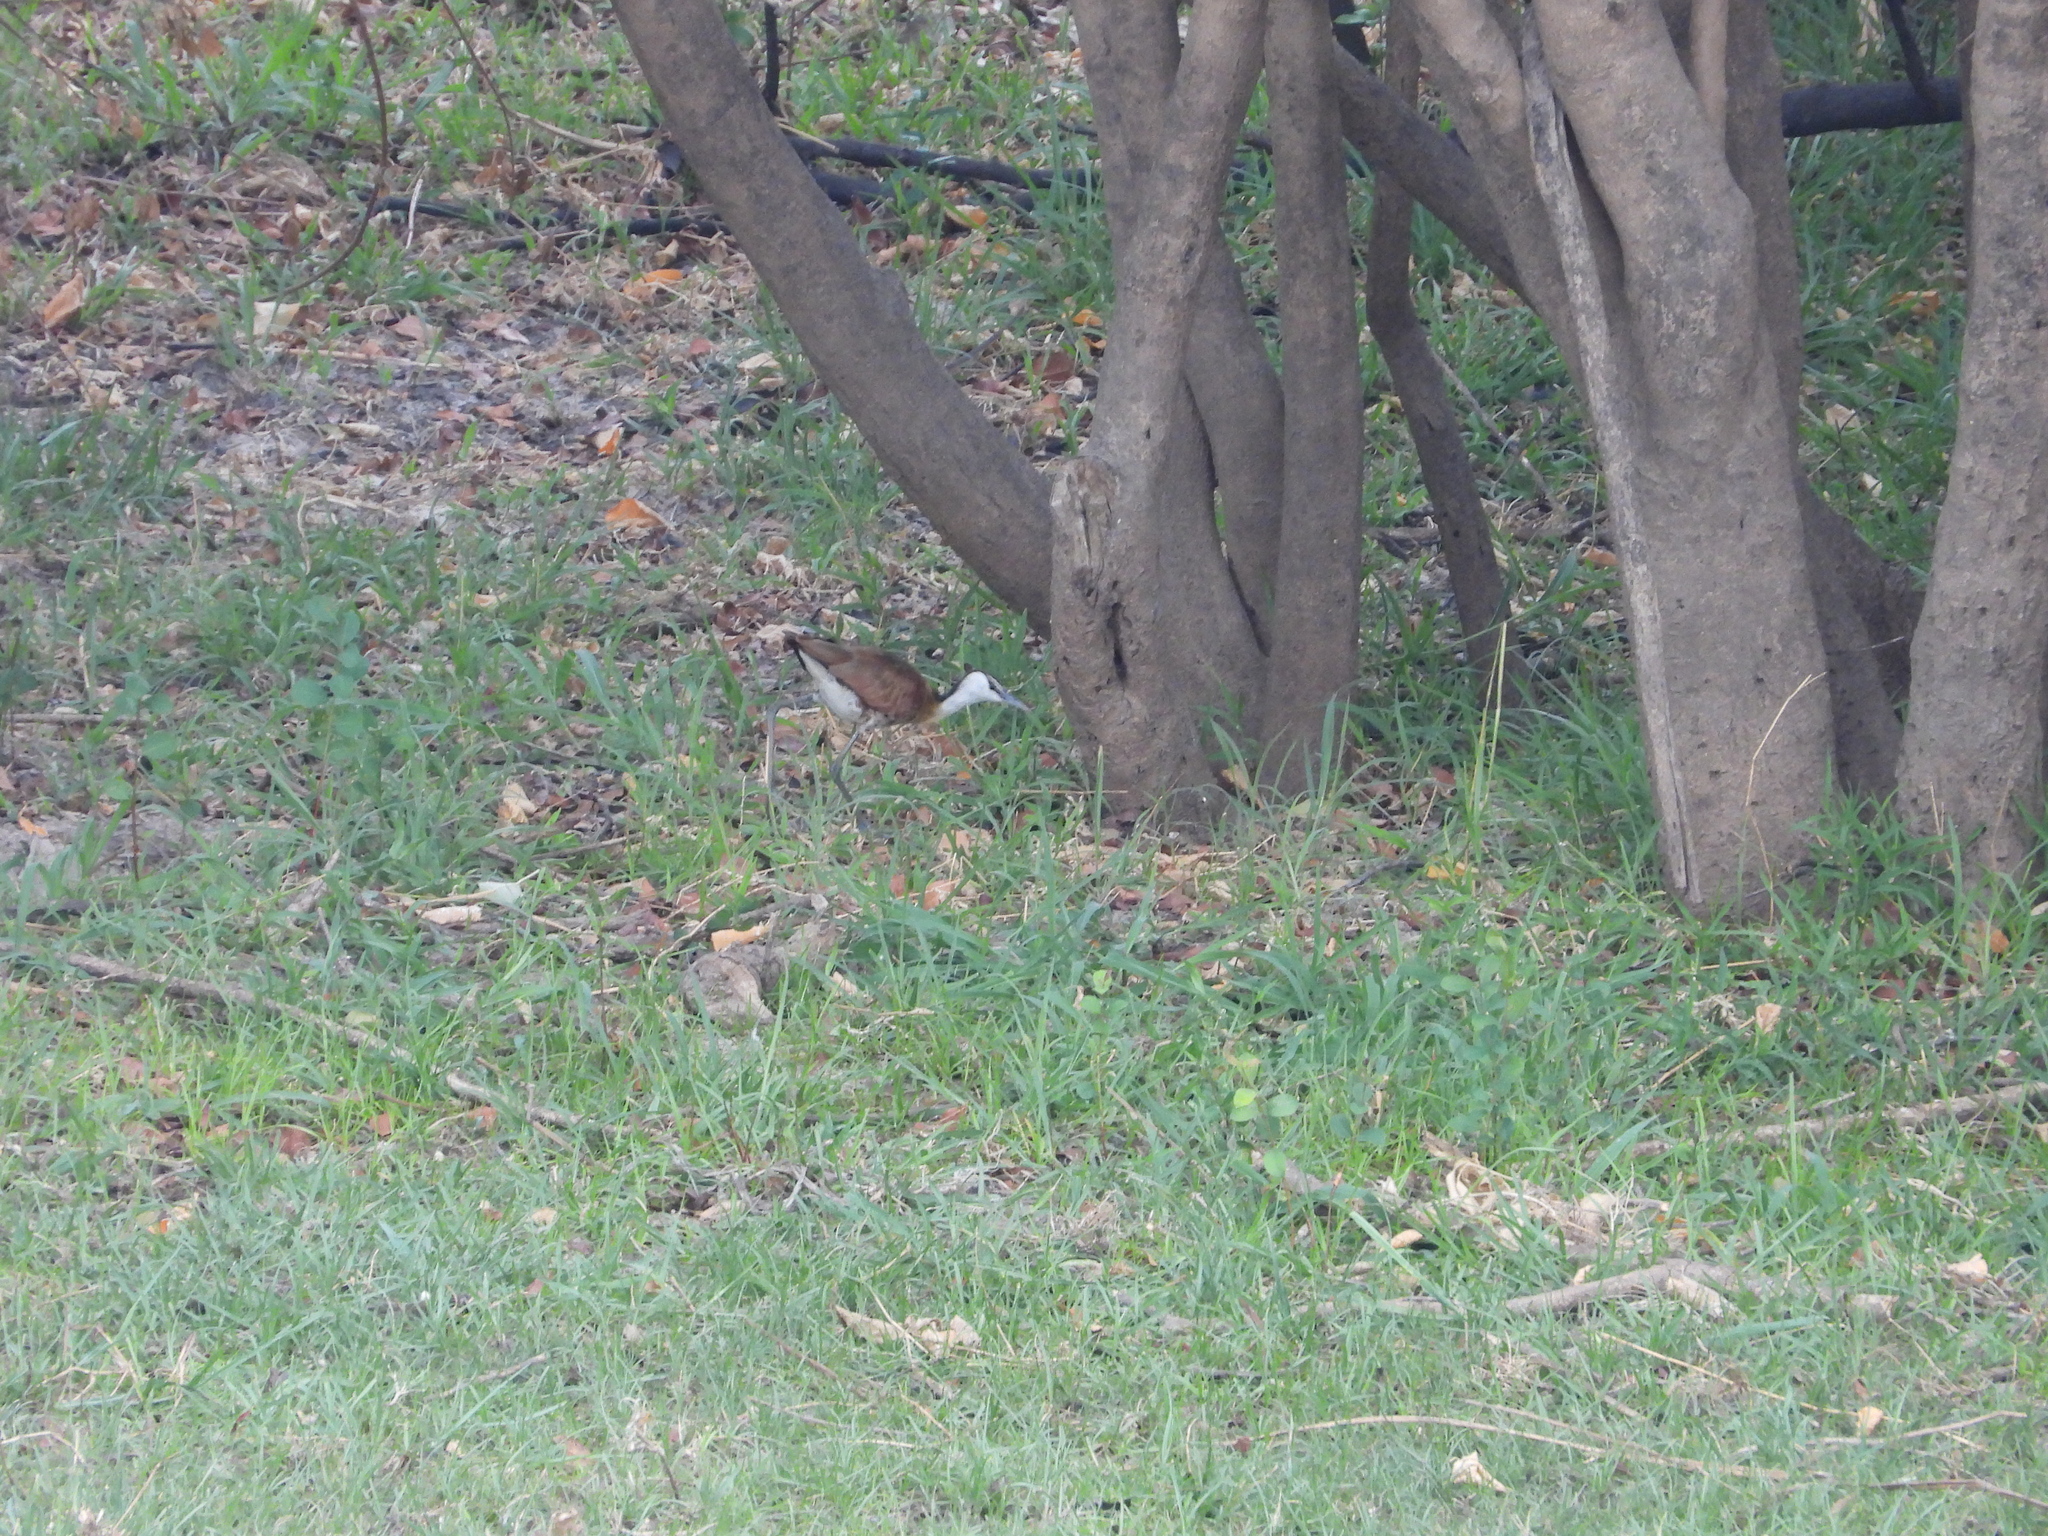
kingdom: Animalia
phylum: Chordata
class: Aves
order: Charadriiformes
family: Jacanidae
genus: Actophilornis
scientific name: Actophilornis africanus
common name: African jacana
